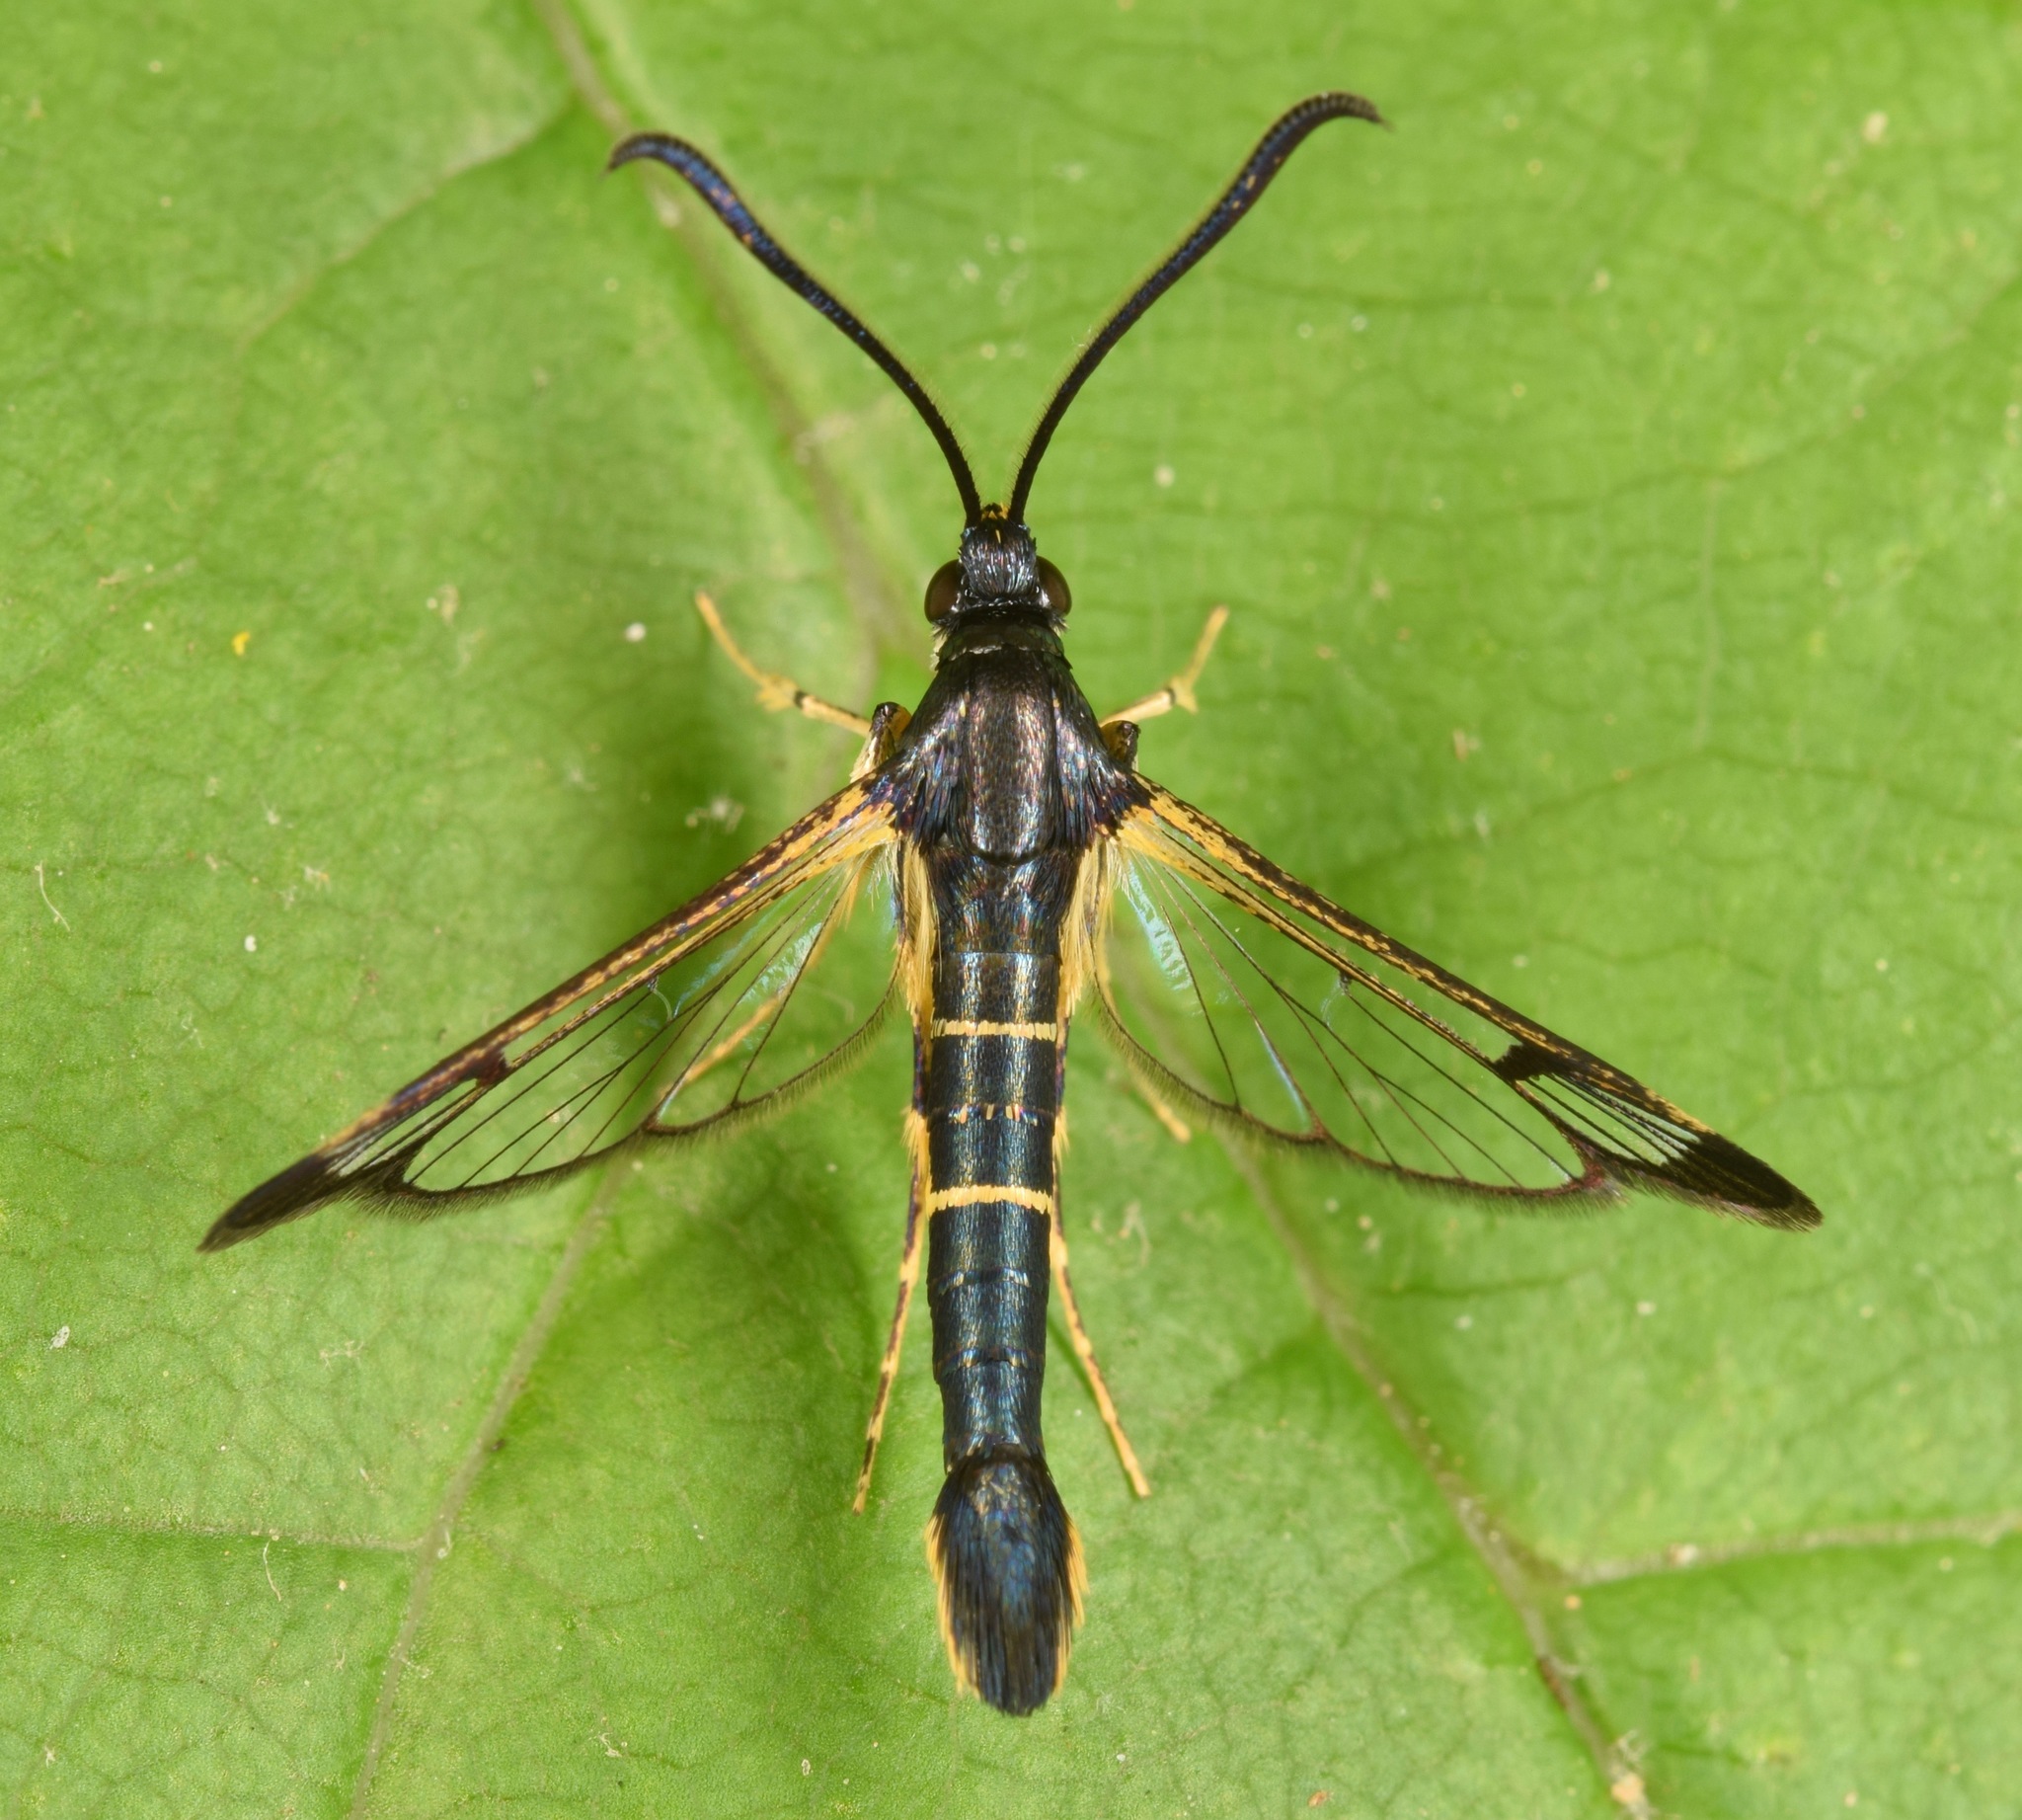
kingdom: Animalia
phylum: Arthropoda
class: Insecta
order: Lepidoptera
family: Sesiidae
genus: Synanthedon
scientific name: Synanthedon scitula
